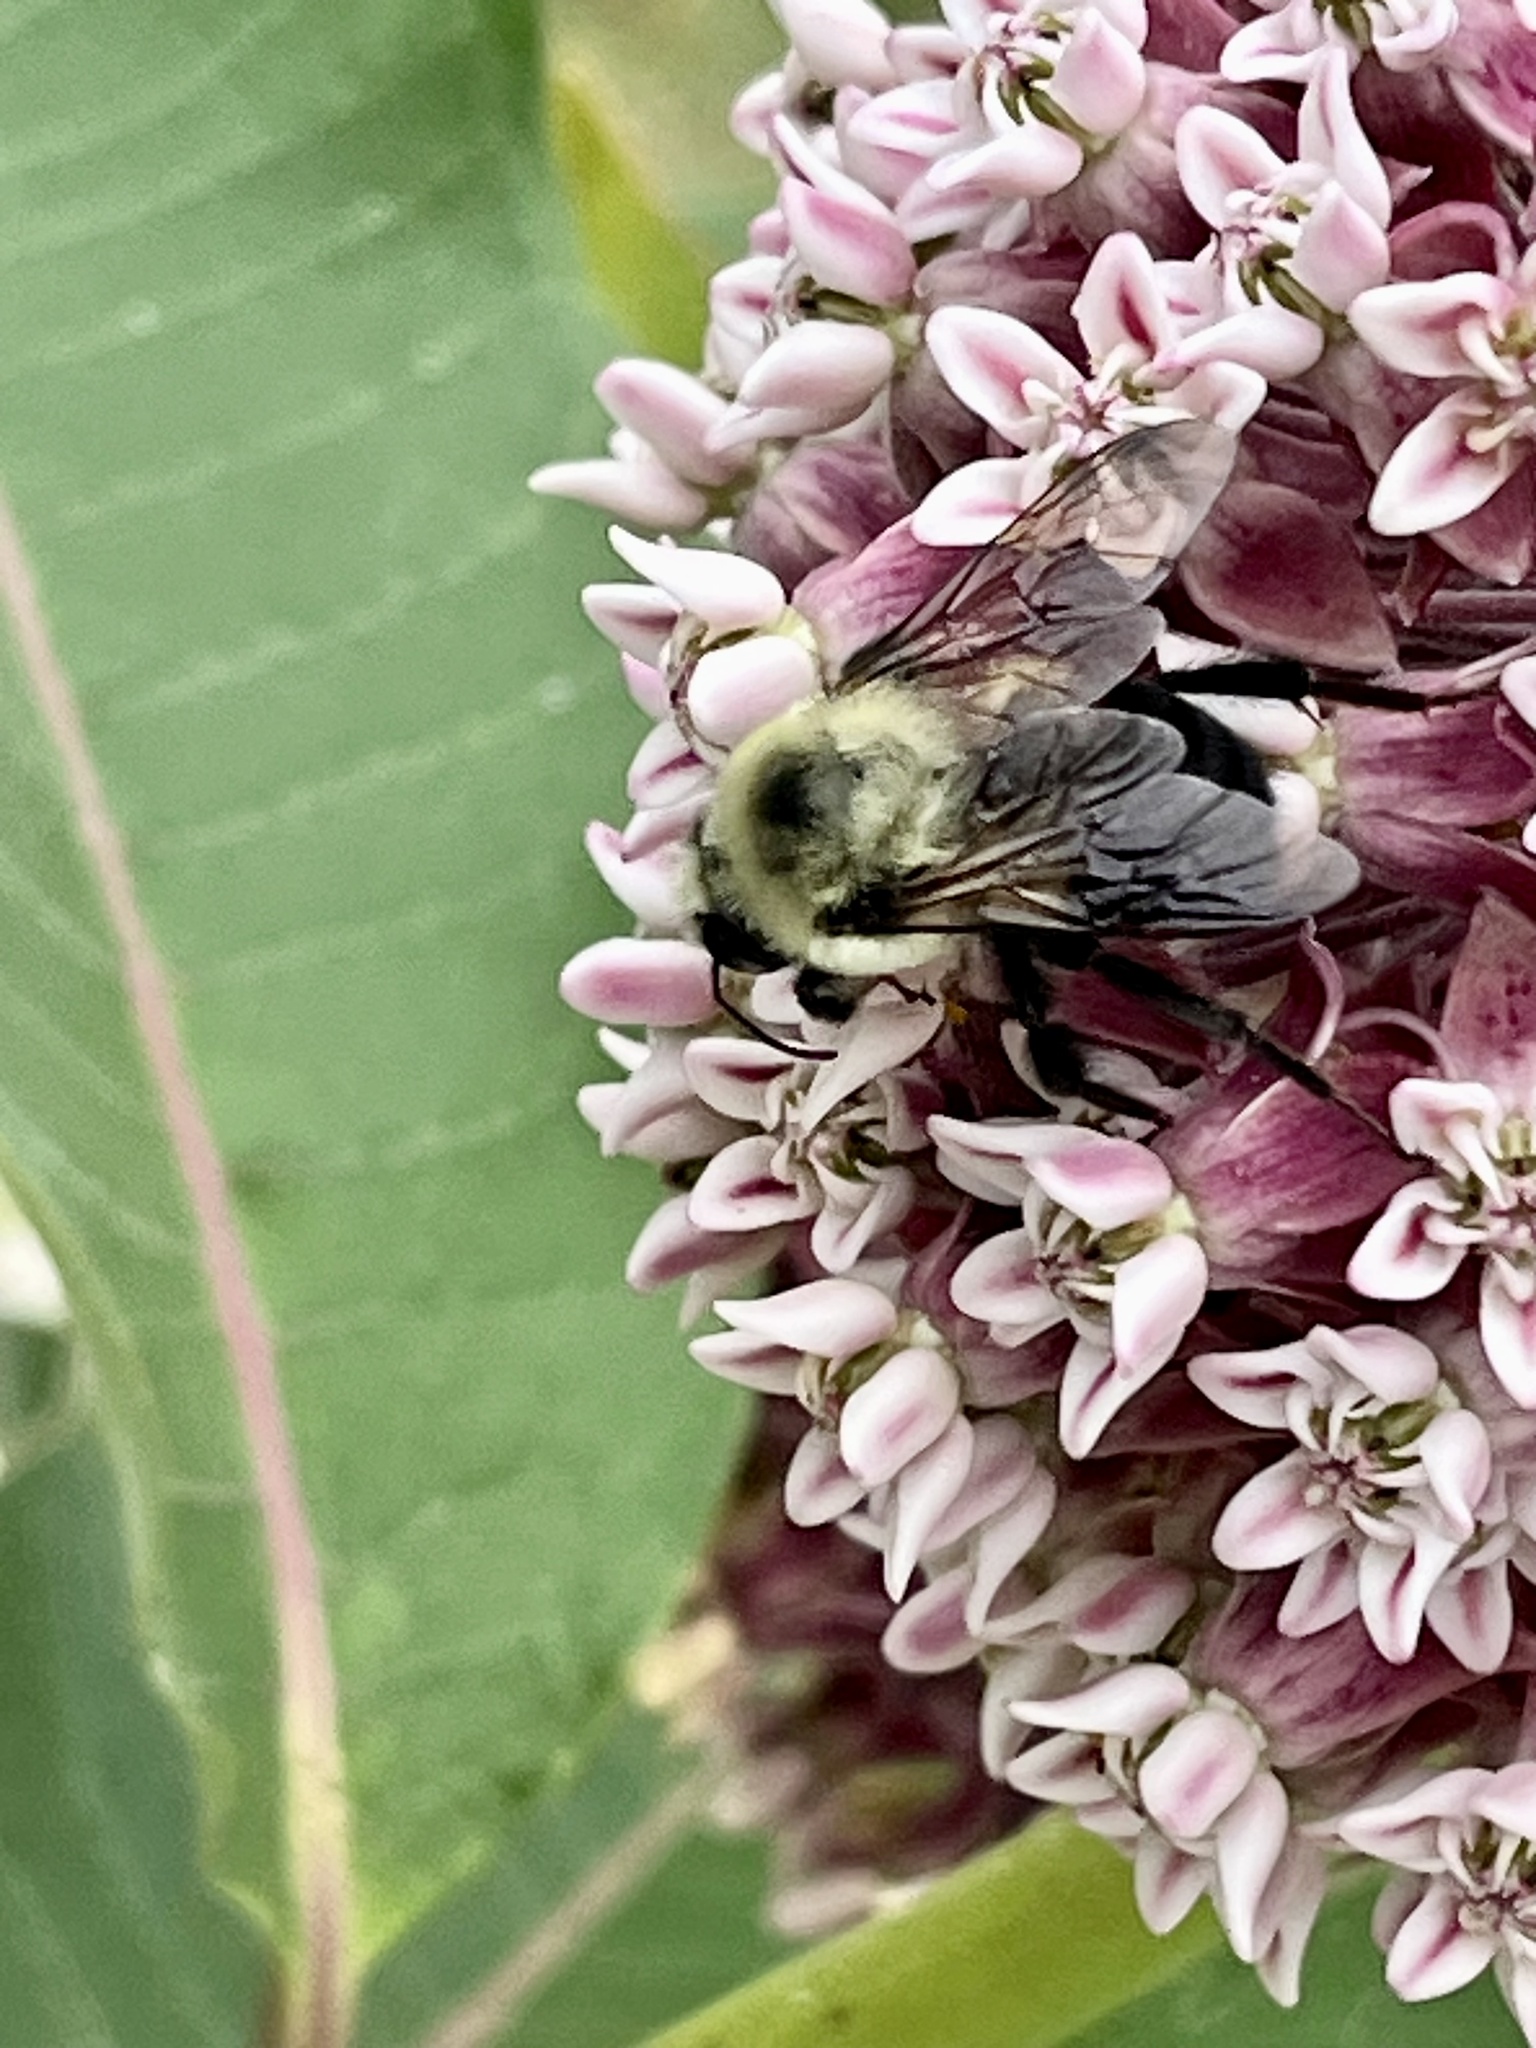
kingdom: Animalia
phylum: Arthropoda
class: Insecta
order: Hymenoptera
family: Apidae
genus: Bombus
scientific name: Bombus griseocollis
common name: Brown-belted bumble bee
